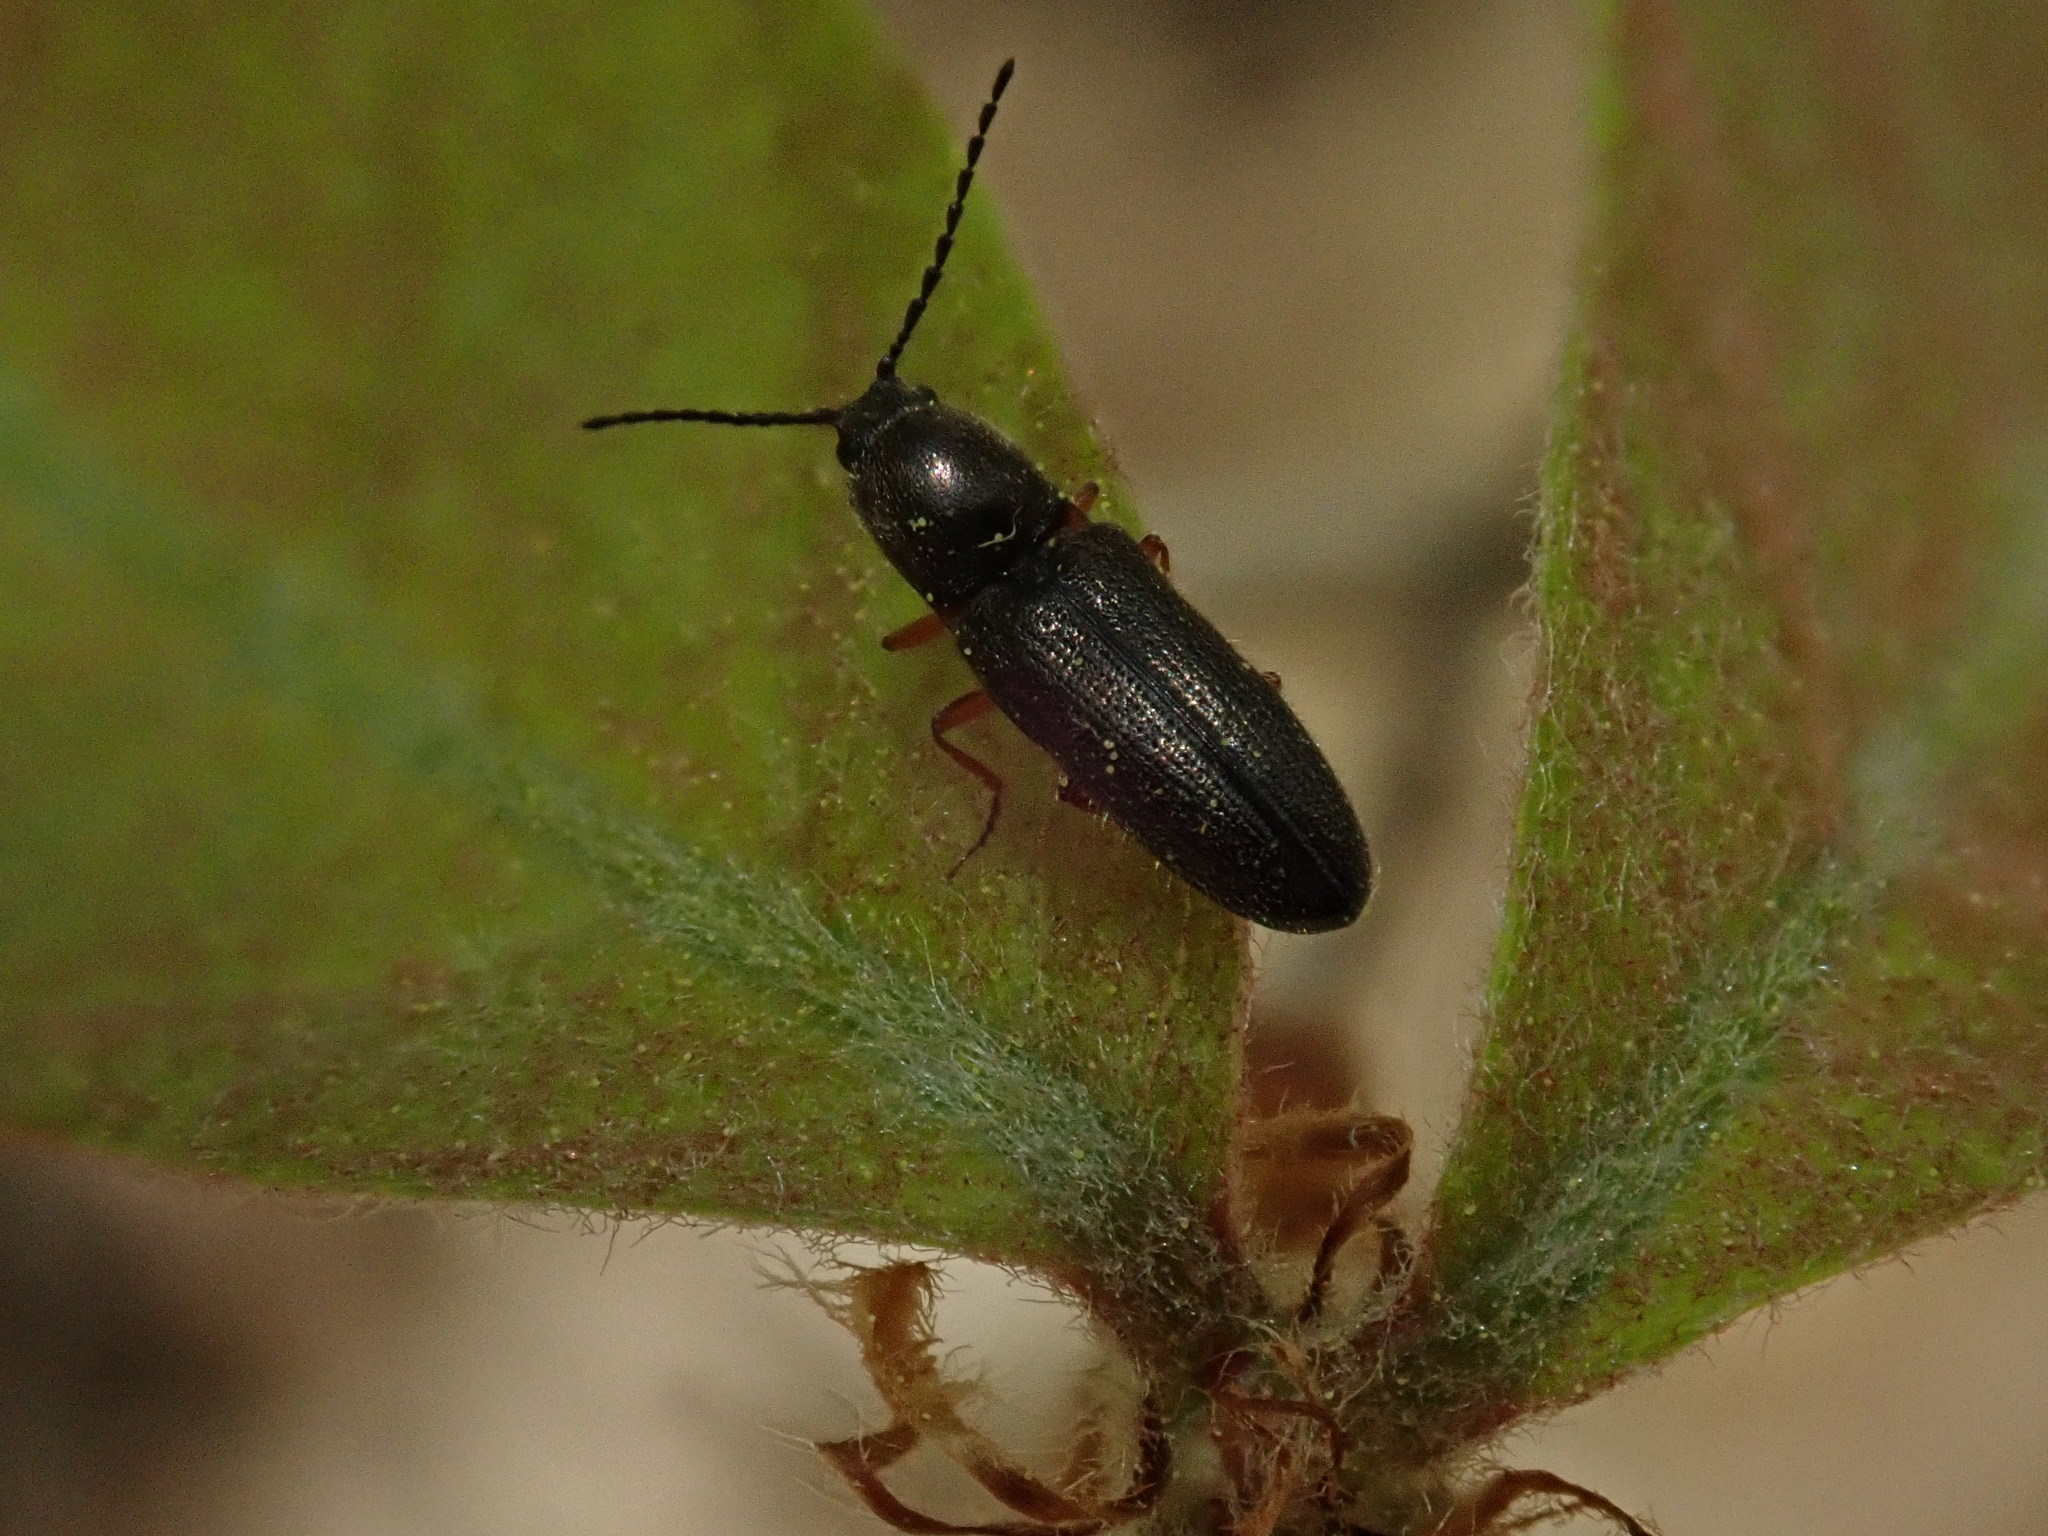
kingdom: Animalia
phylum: Arthropoda
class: Insecta
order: Coleoptera
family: Elateridae
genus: Limonius
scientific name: Limonius basilaris
